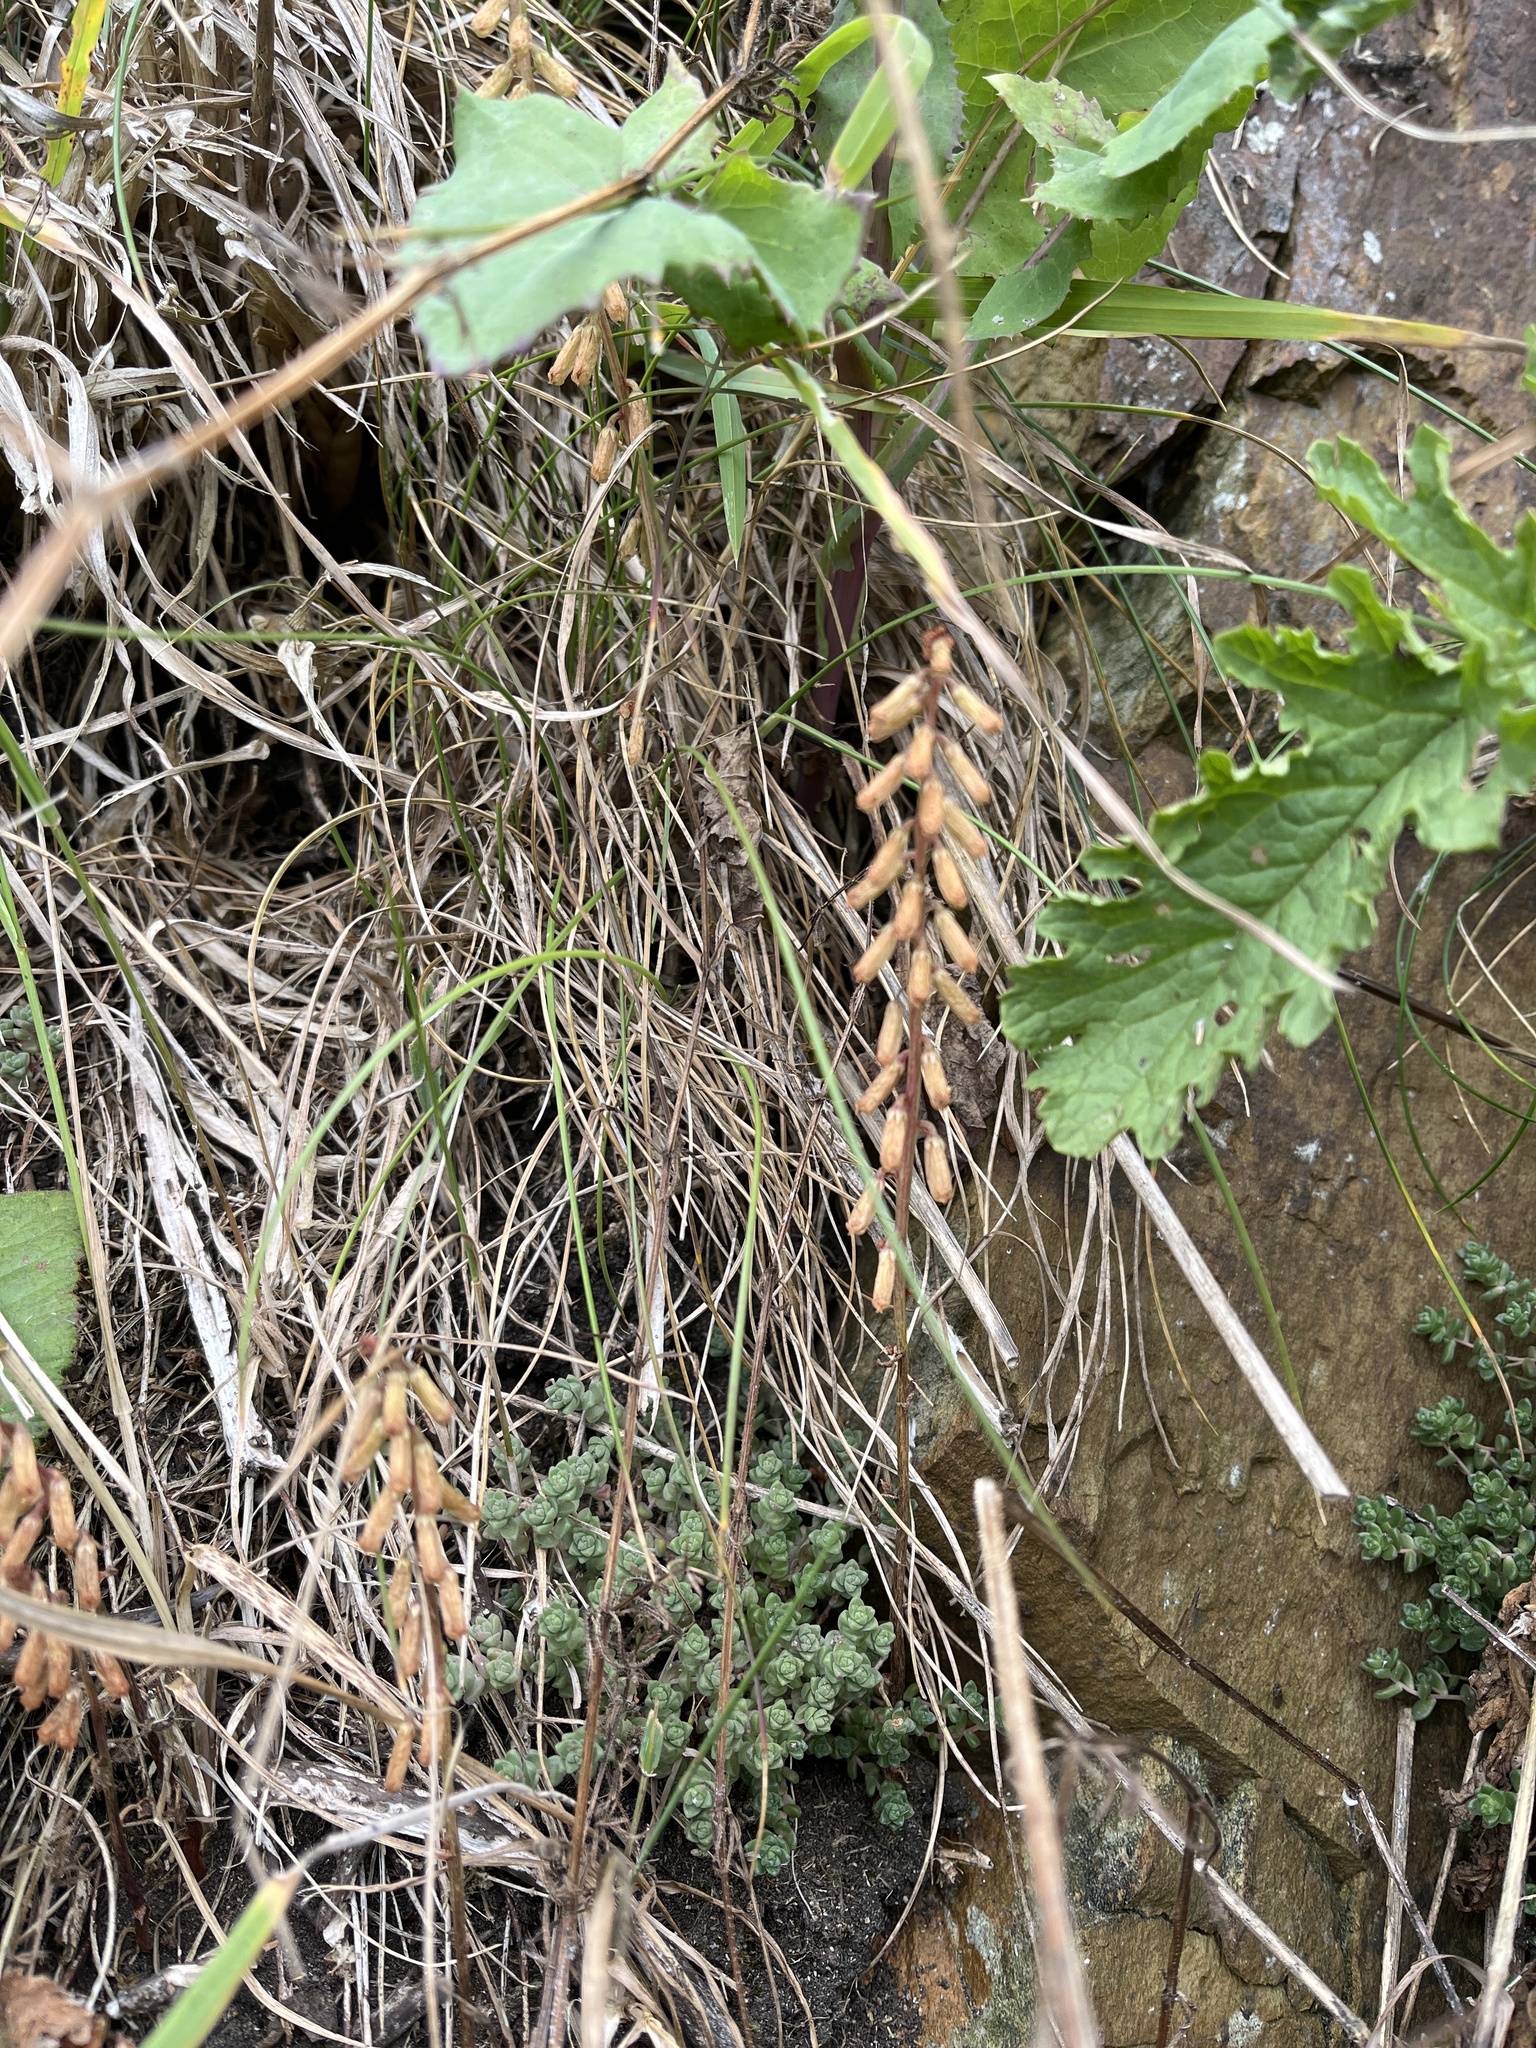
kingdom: Plantae
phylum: Tracheophyta
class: Magnoliopsida
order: Saxifragales
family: Crassulaceae
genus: Umbilicus
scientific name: Umbilicus rupestris
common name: Navelwort
